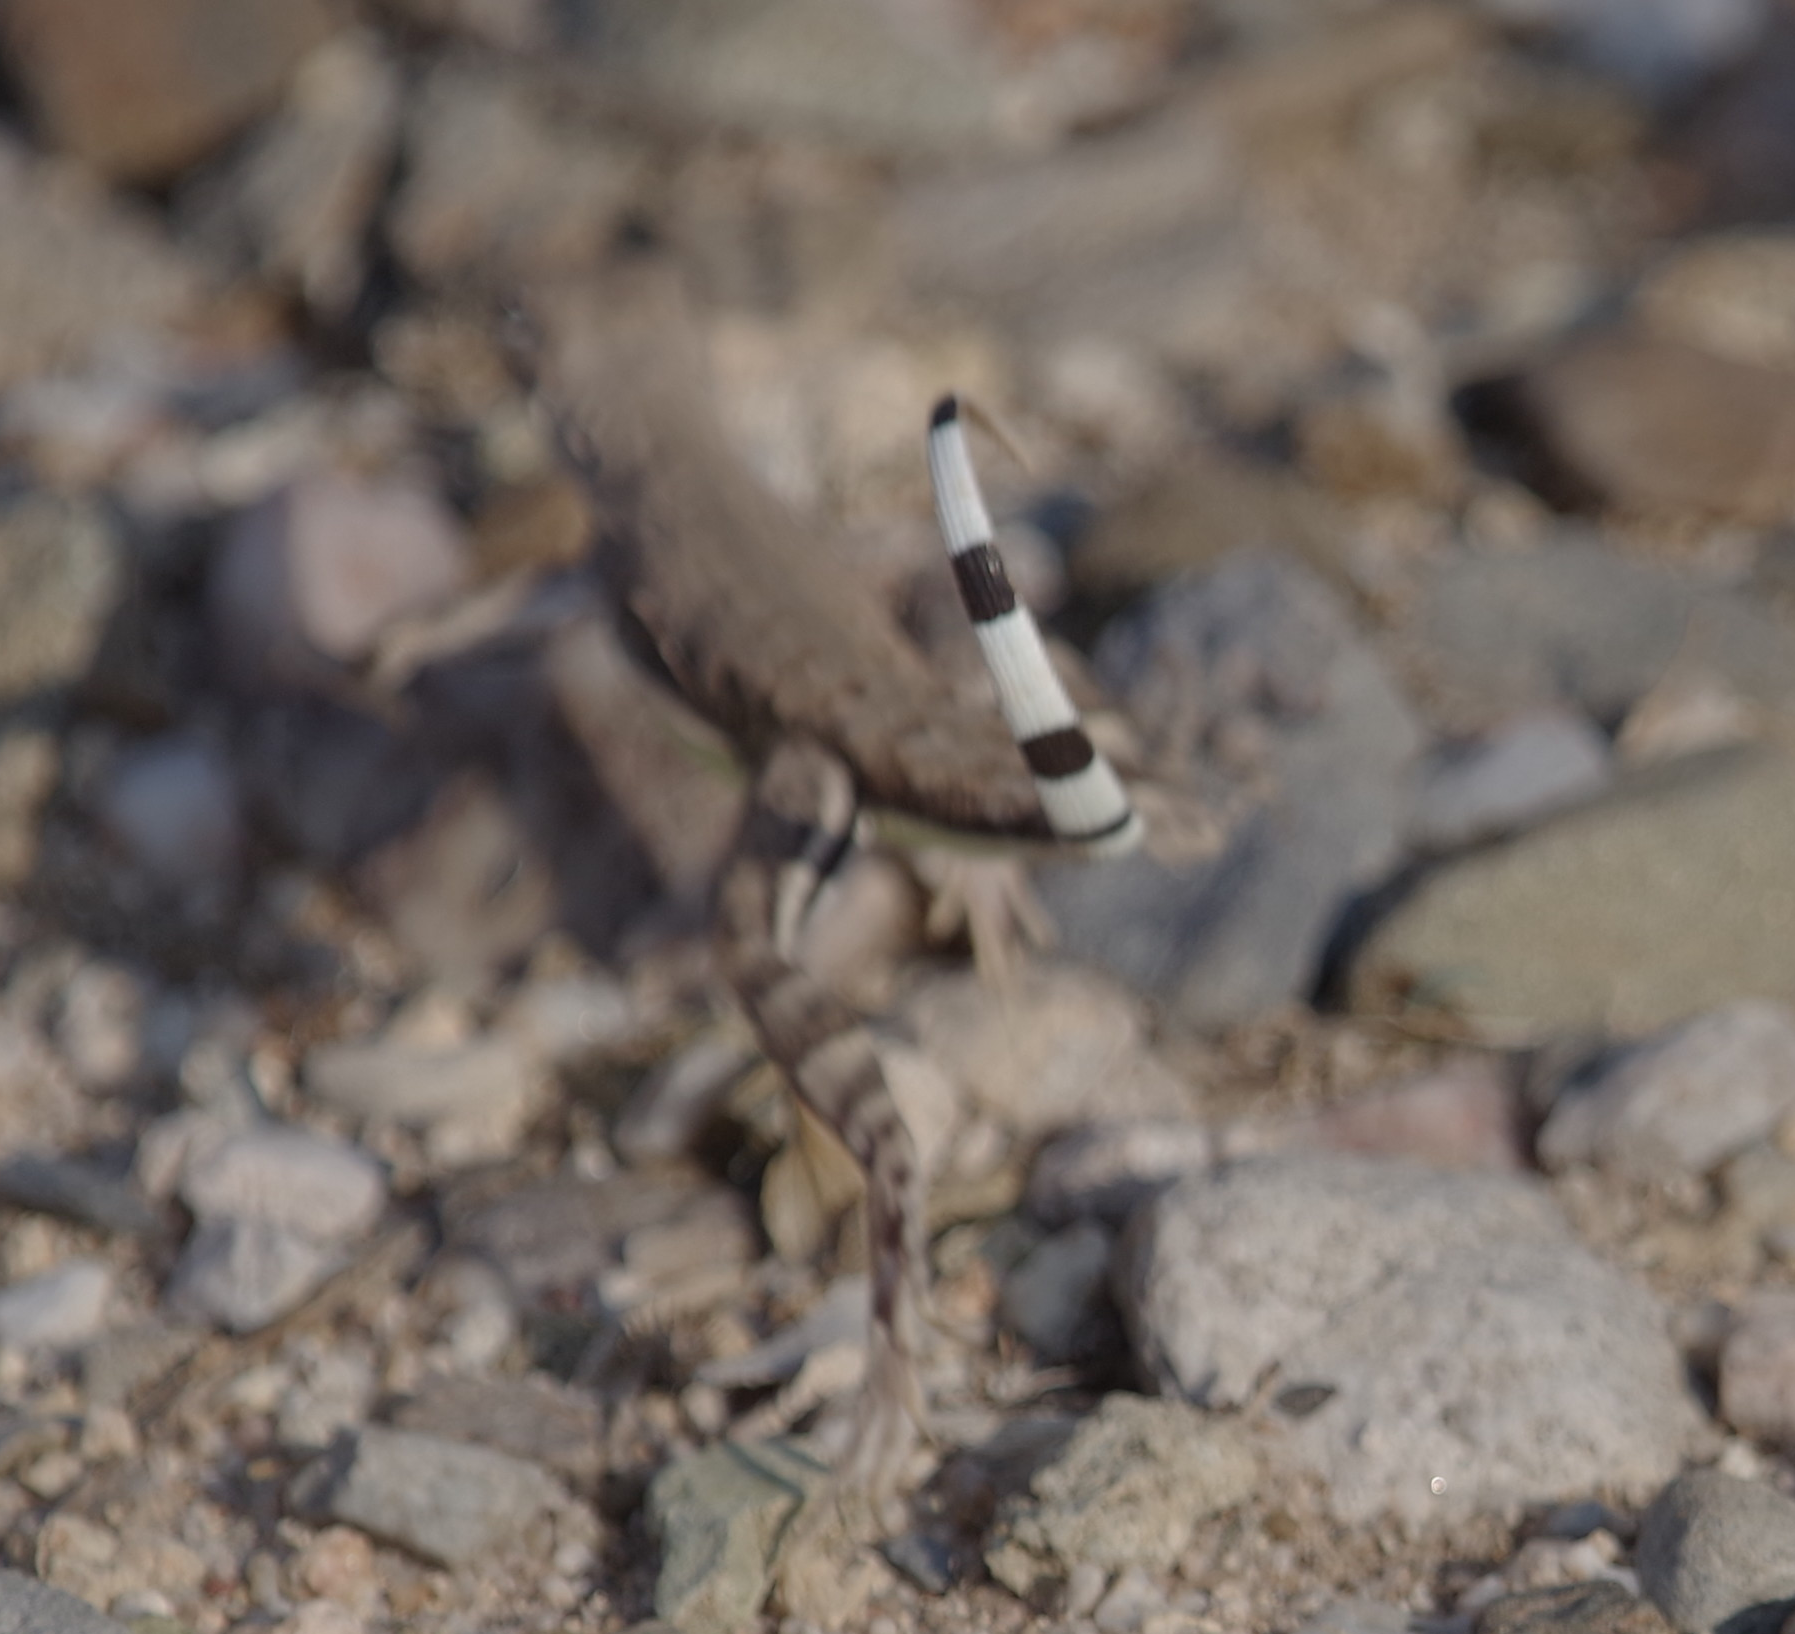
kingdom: Animalia
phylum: Chordata
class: Squamata
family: Phrynosomatidae
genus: Callisaurus
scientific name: Callisaurus draconoides
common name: Zebra-tailed lizard
